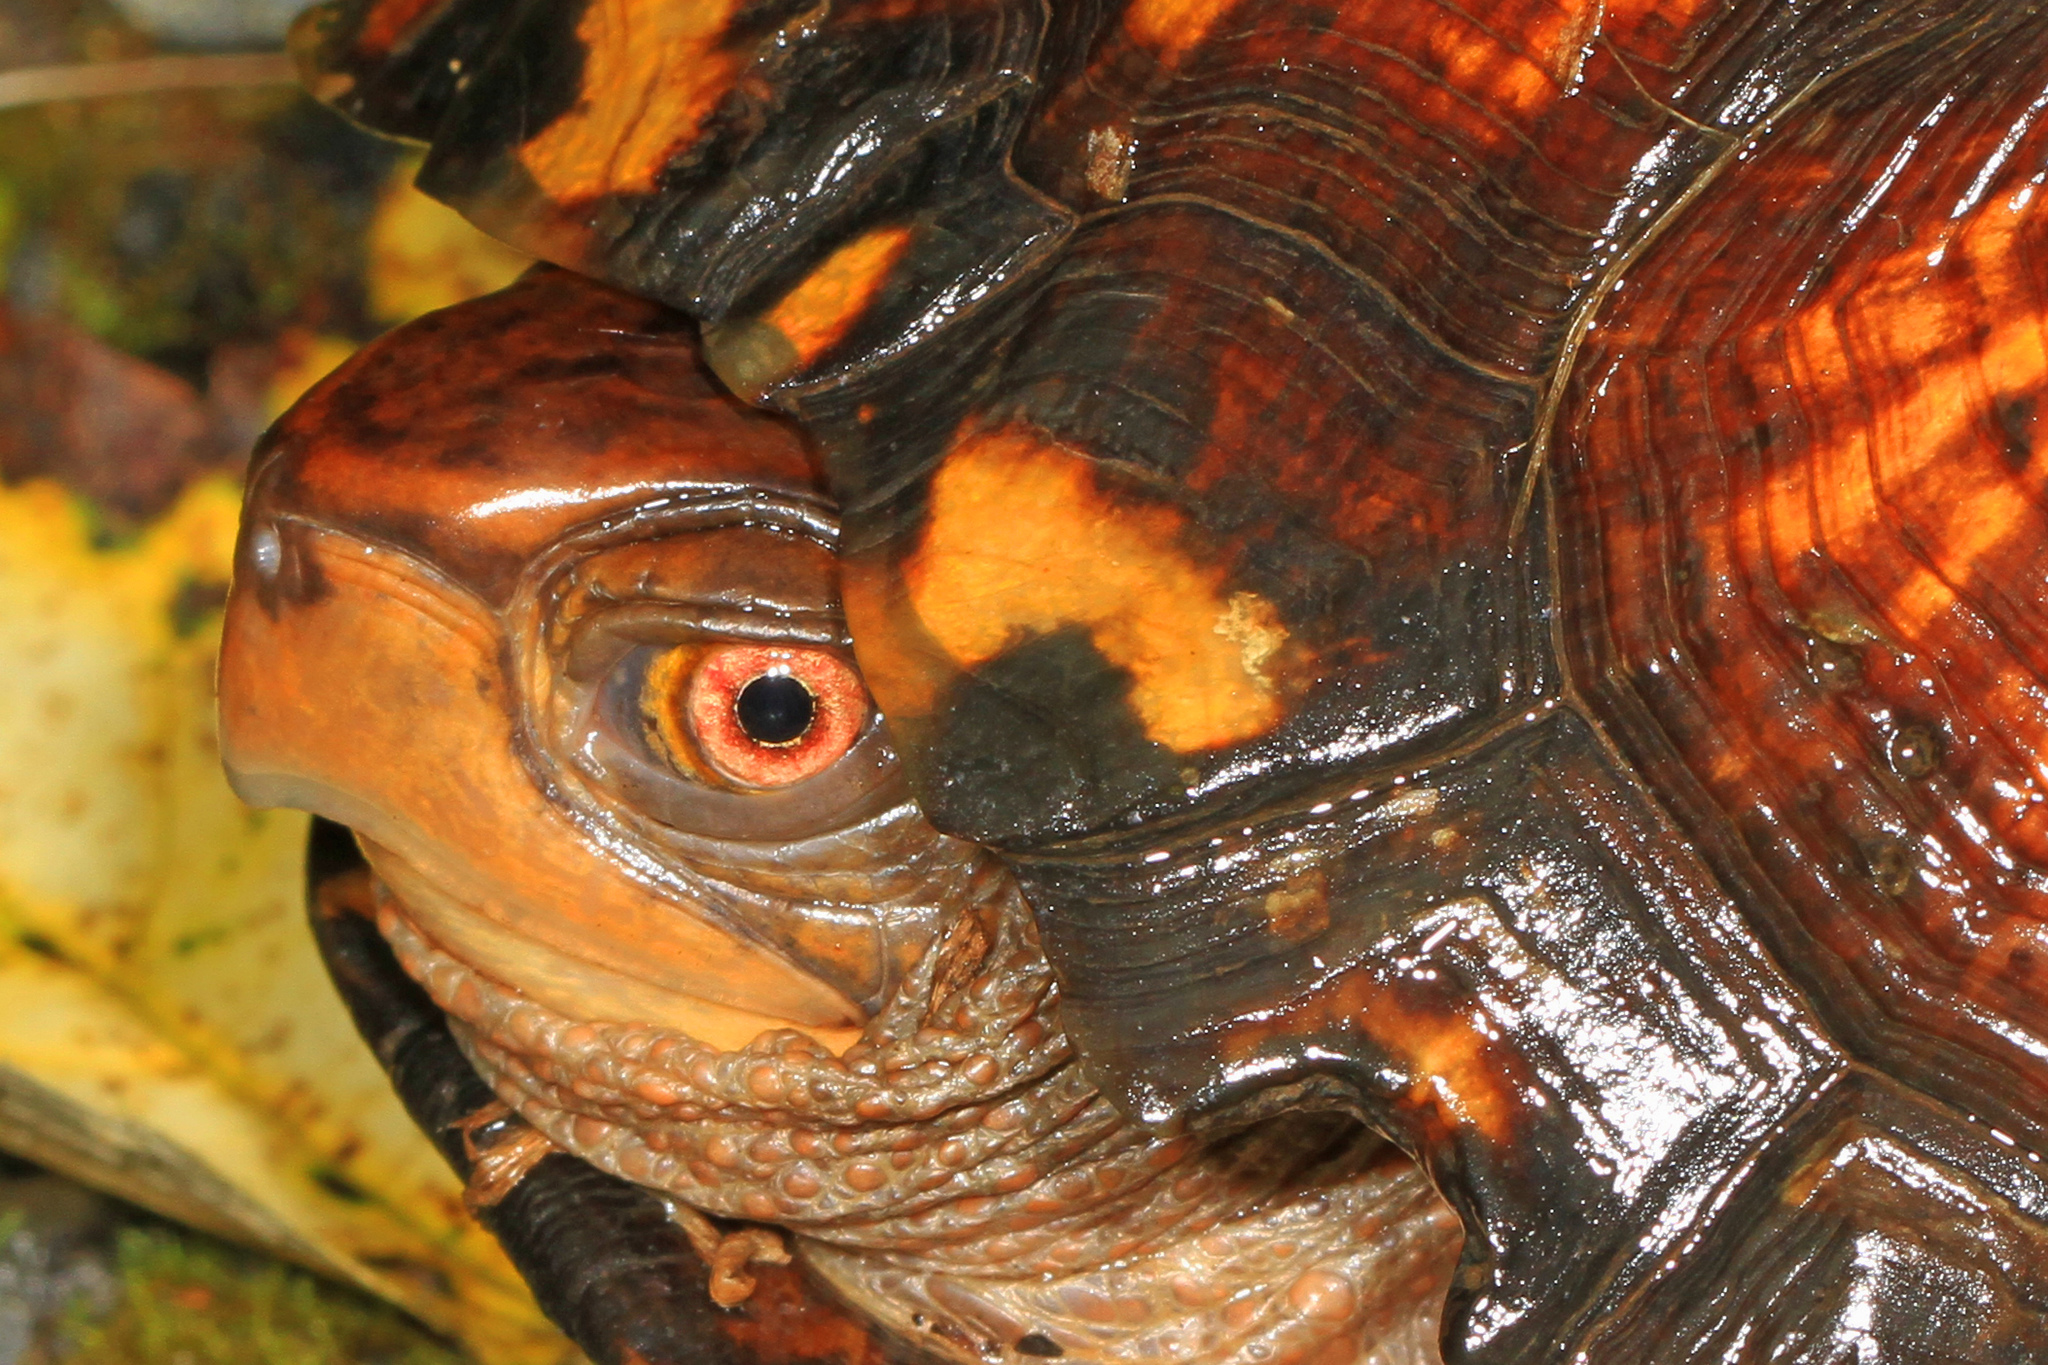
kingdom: Animalia
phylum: Chordata
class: Testudines
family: Emydidae
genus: Terrapene
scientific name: Terrapene carolina
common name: Common box turtle
